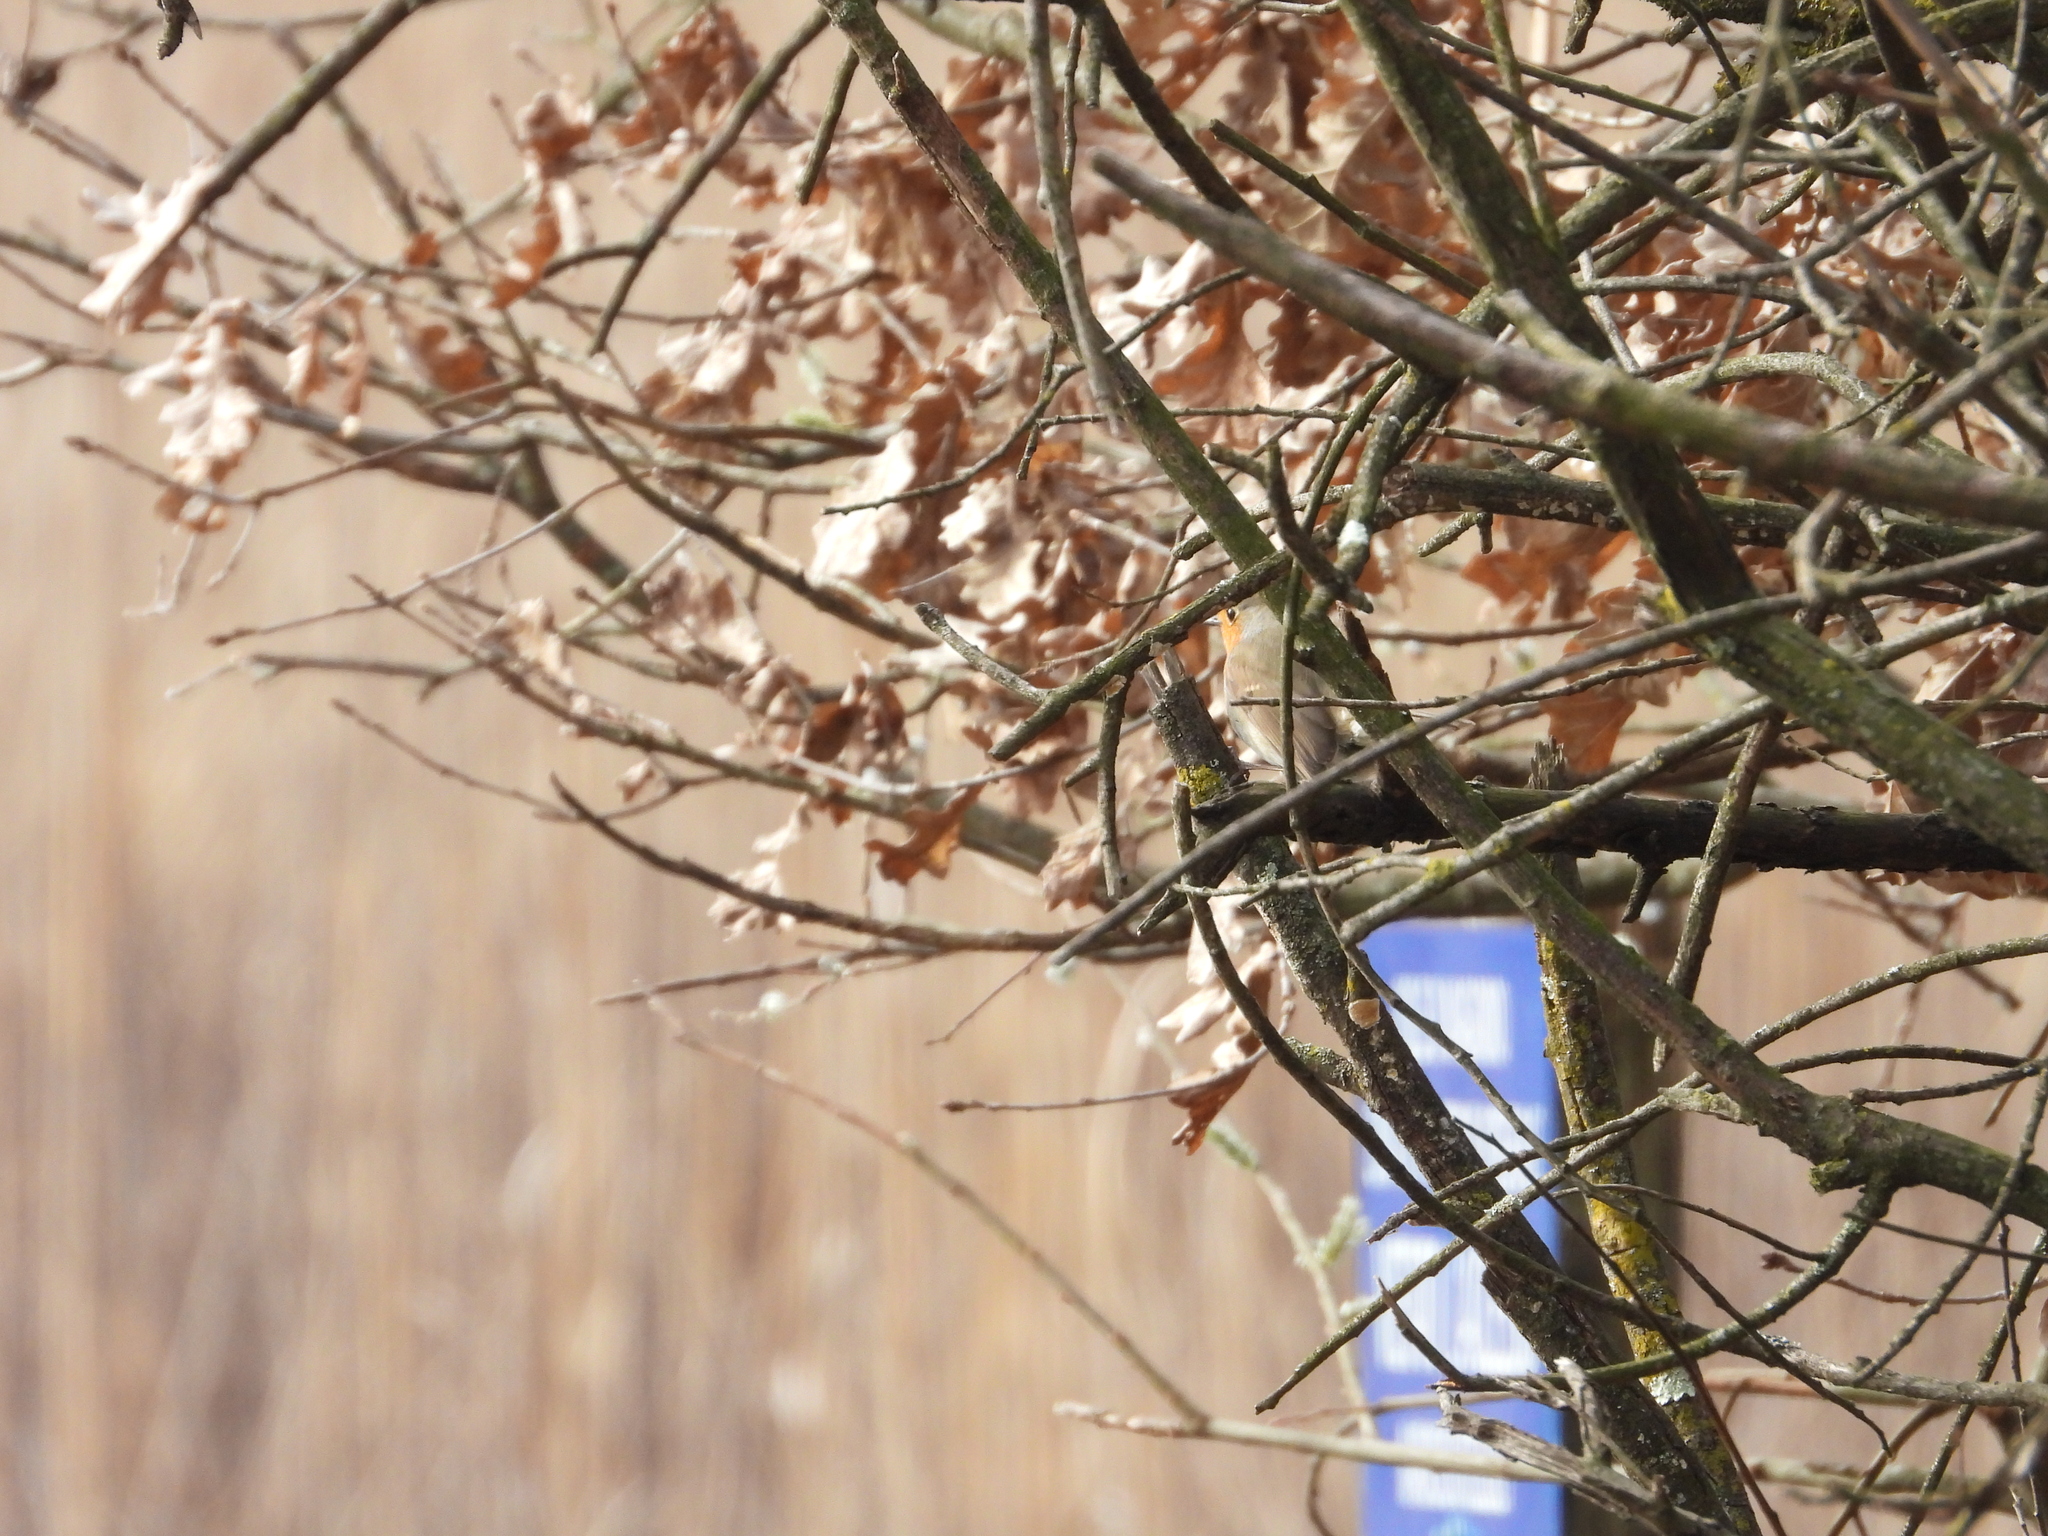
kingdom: Animalia
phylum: Chordata
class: Aves
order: Passeriformes
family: Muscicapidae
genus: Erithacus
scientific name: Erithacus rubecula
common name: European robin
